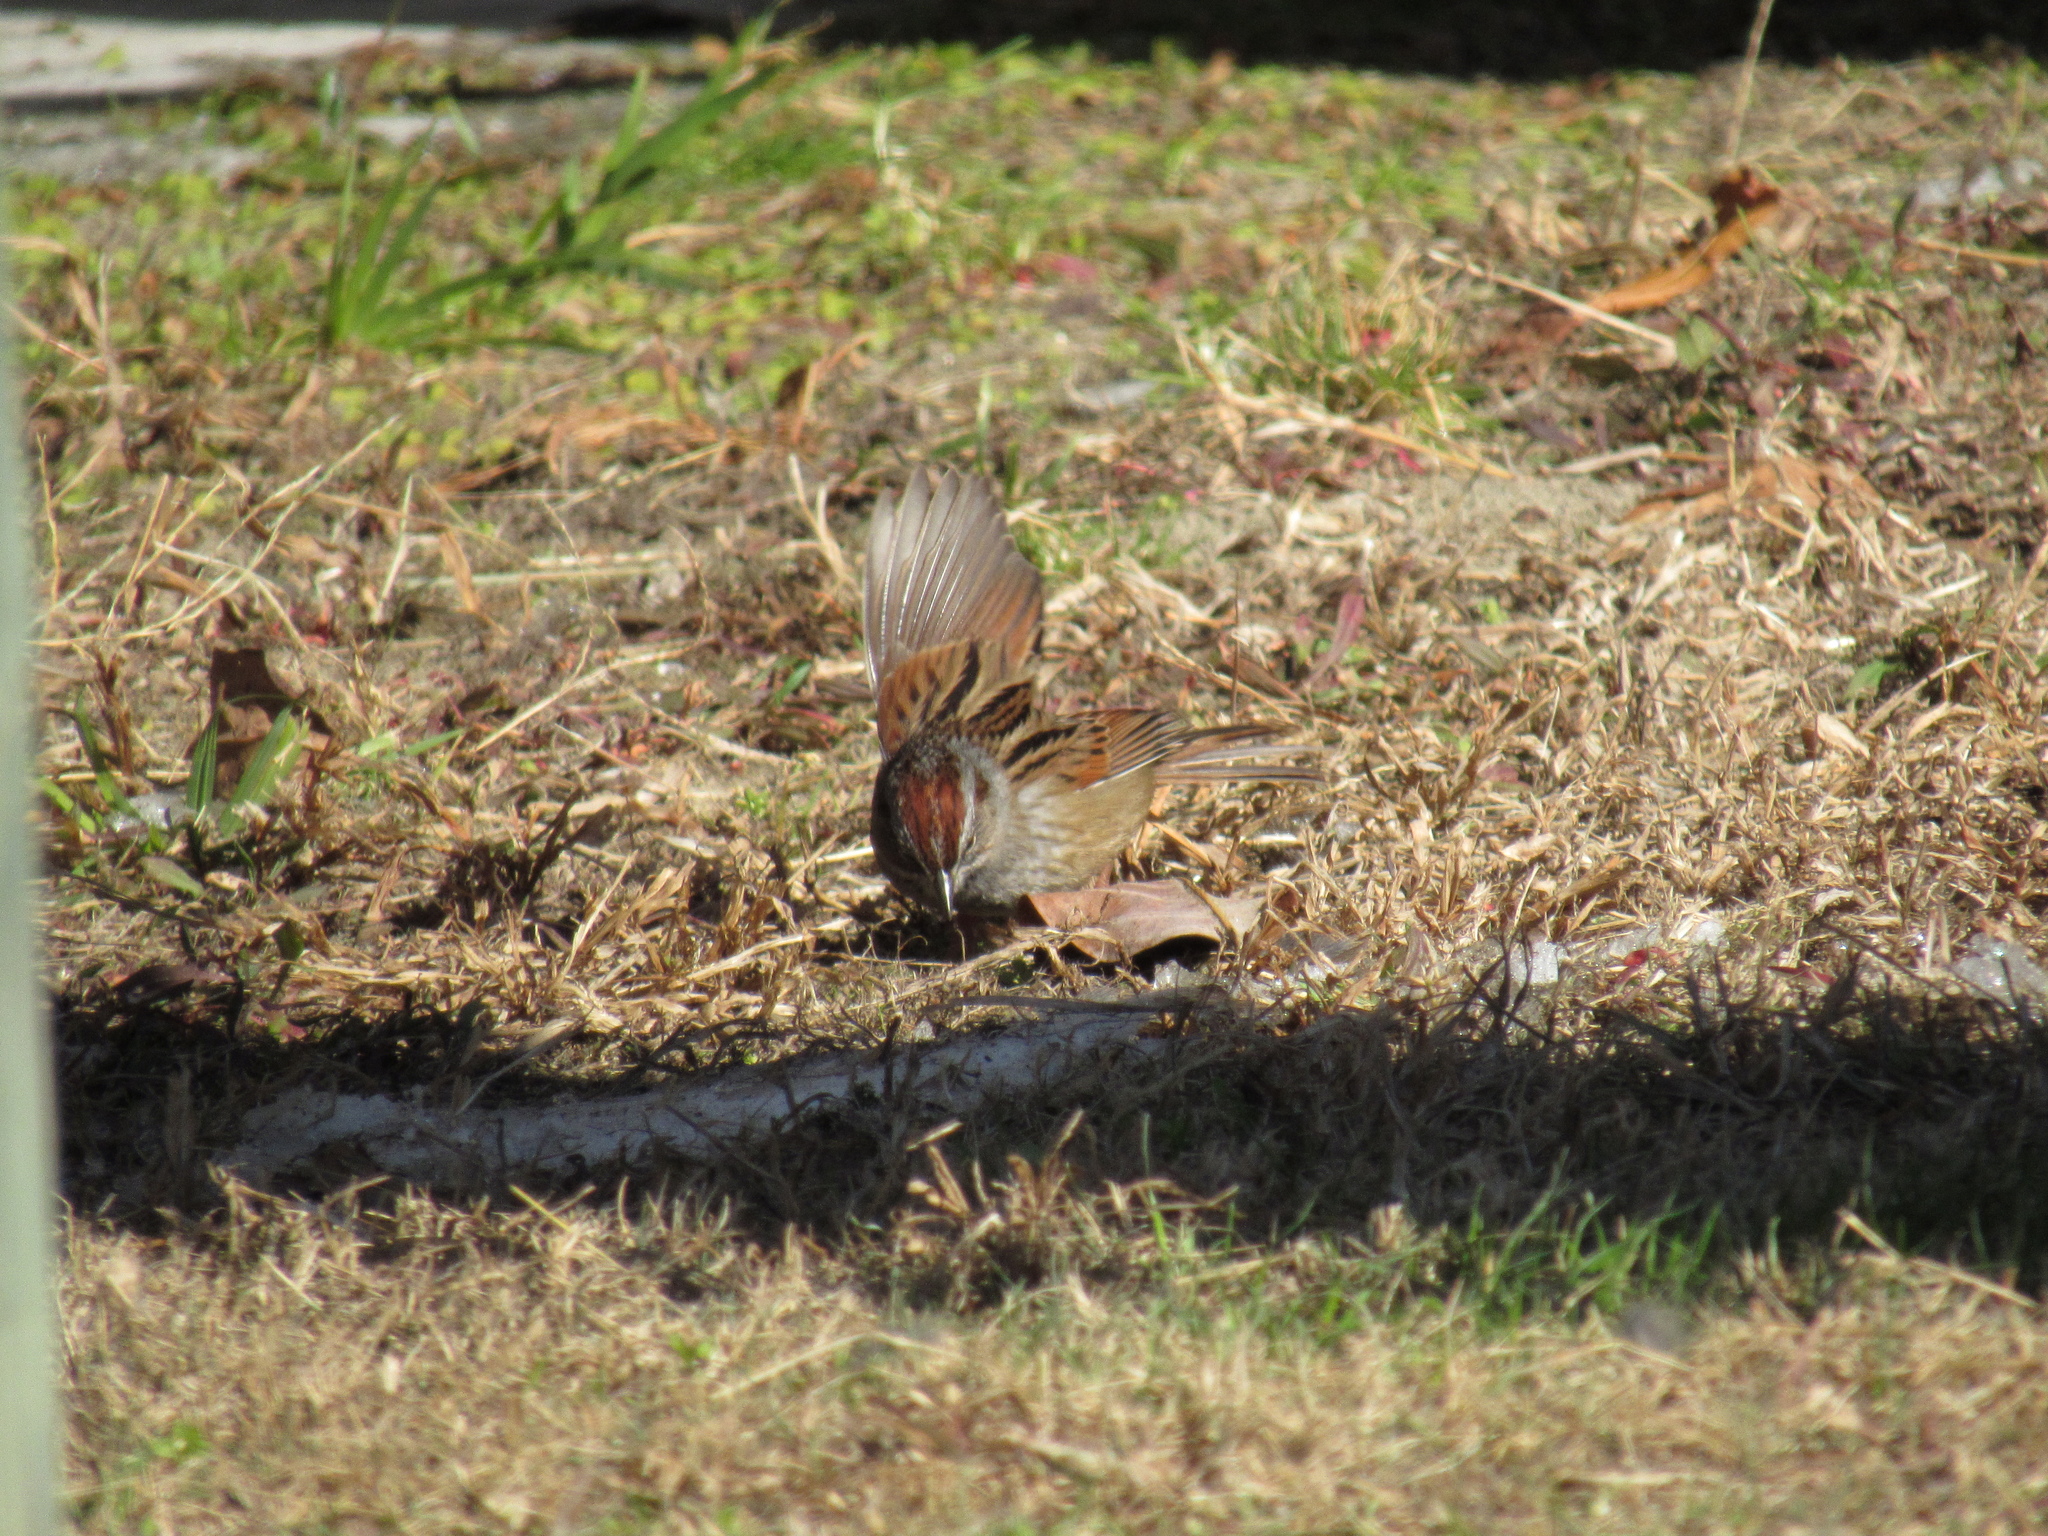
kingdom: Animalia
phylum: Chordata
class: Aves
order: Passeriformes
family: Passerellidae
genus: Melospiza
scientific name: Melospiza georgiana
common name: Swamp sparrow
